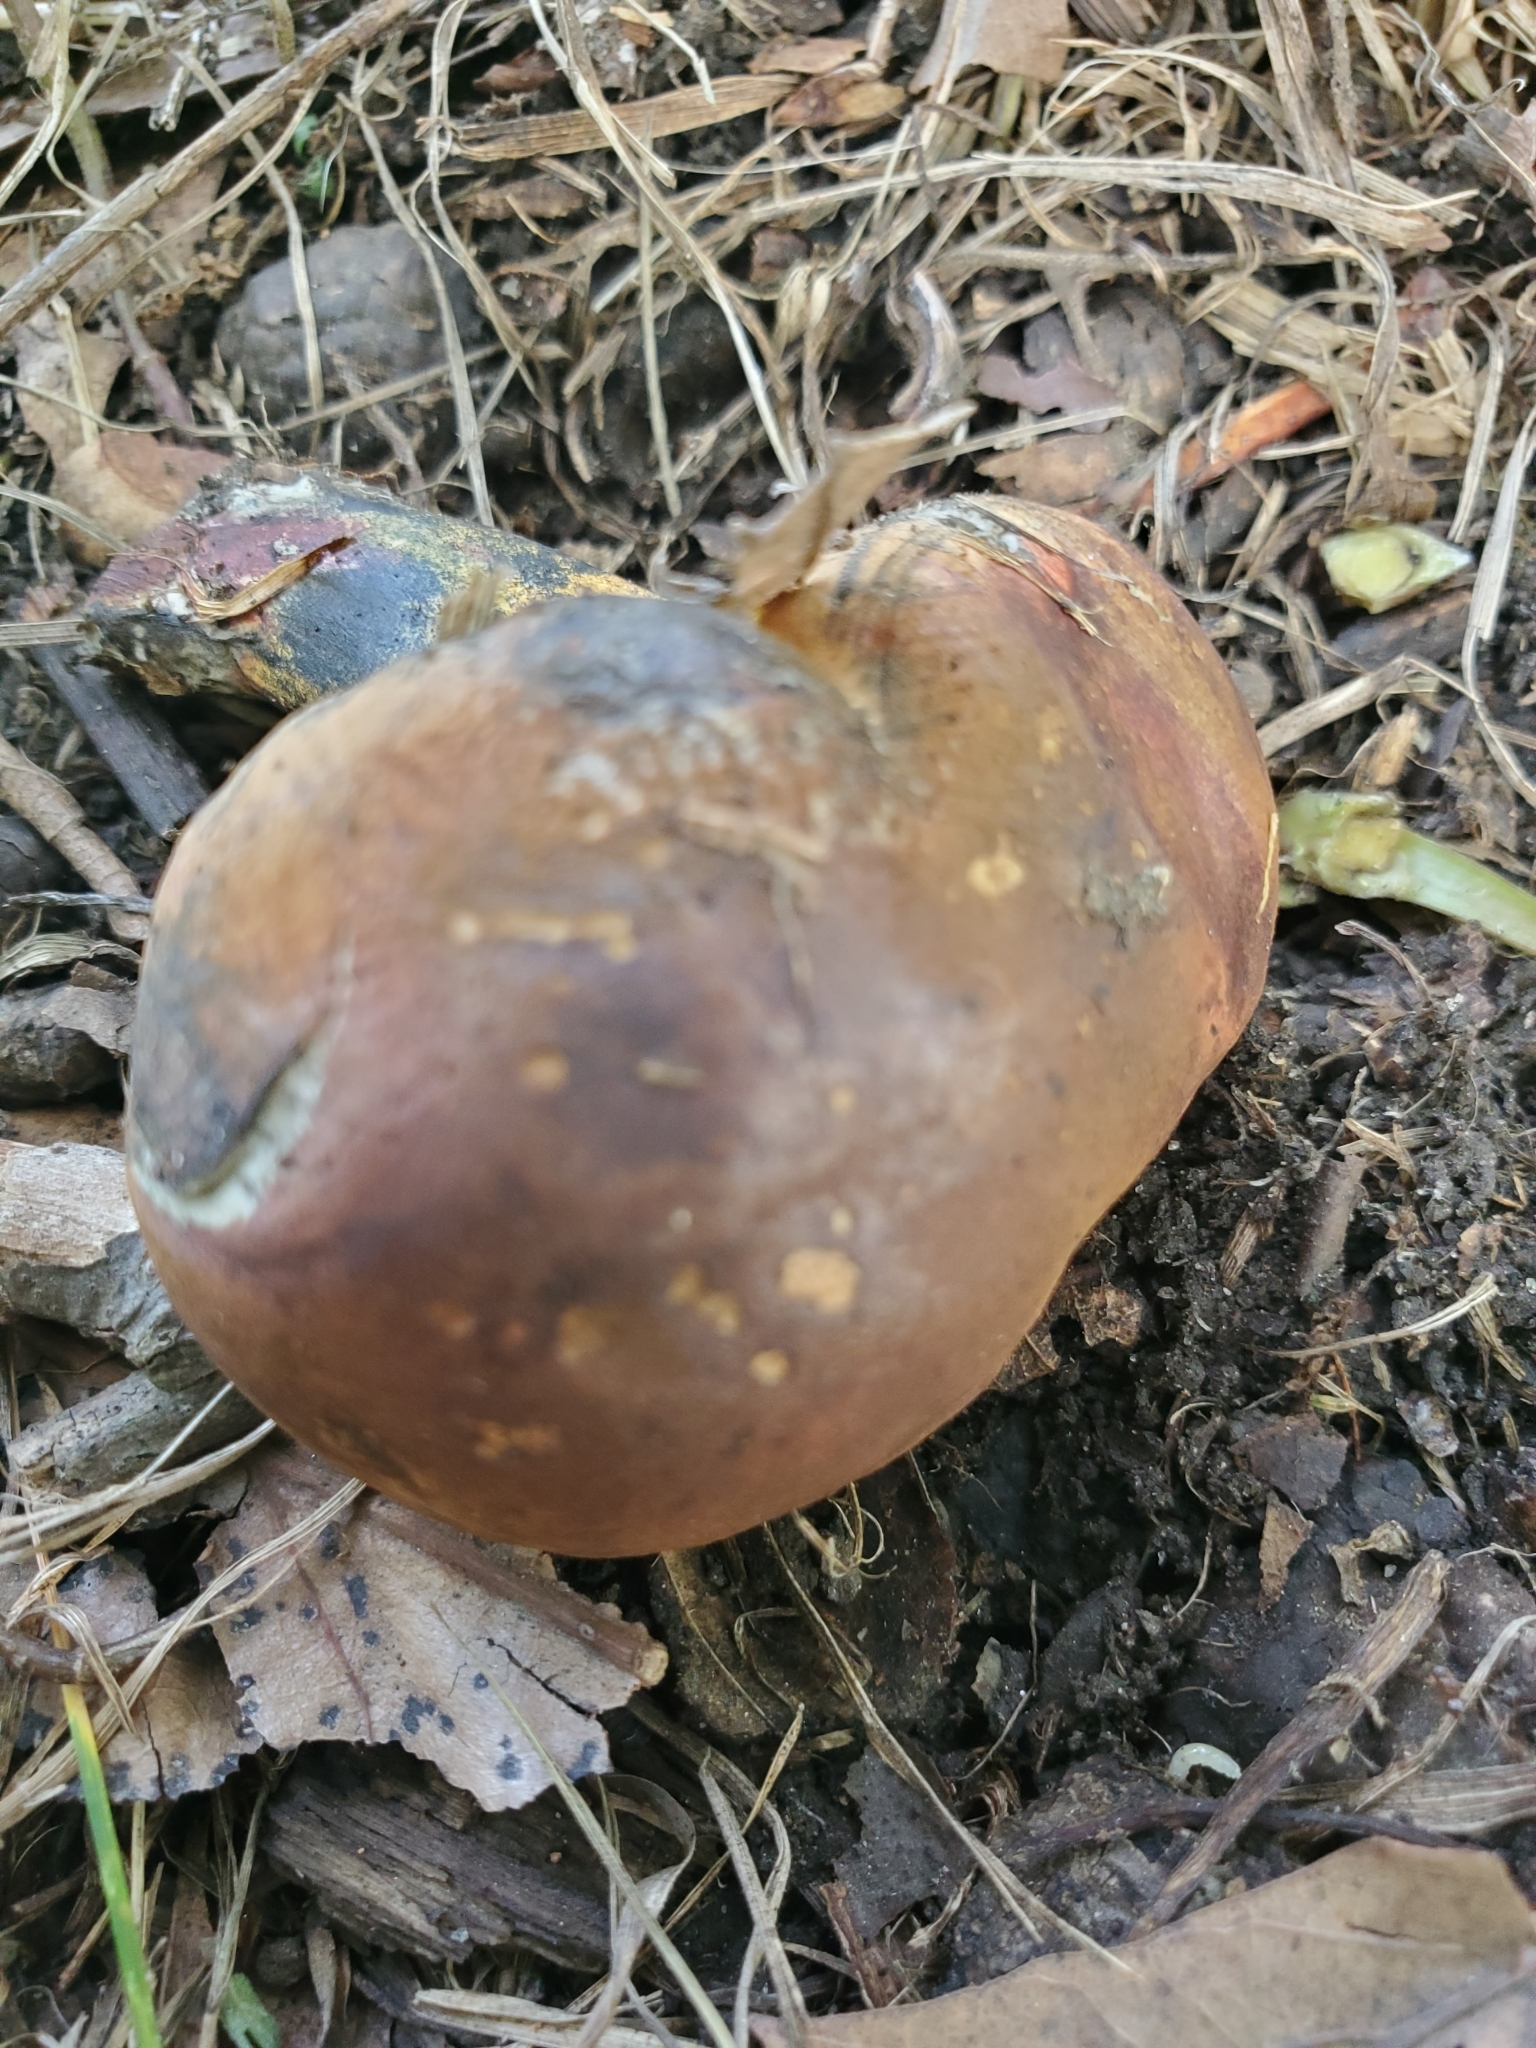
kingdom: Fungi
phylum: Basidiomycota
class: Agaricomycetes
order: Boletales
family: Boletaceae
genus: Butyriboletus
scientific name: Butyriboletus brunneus
